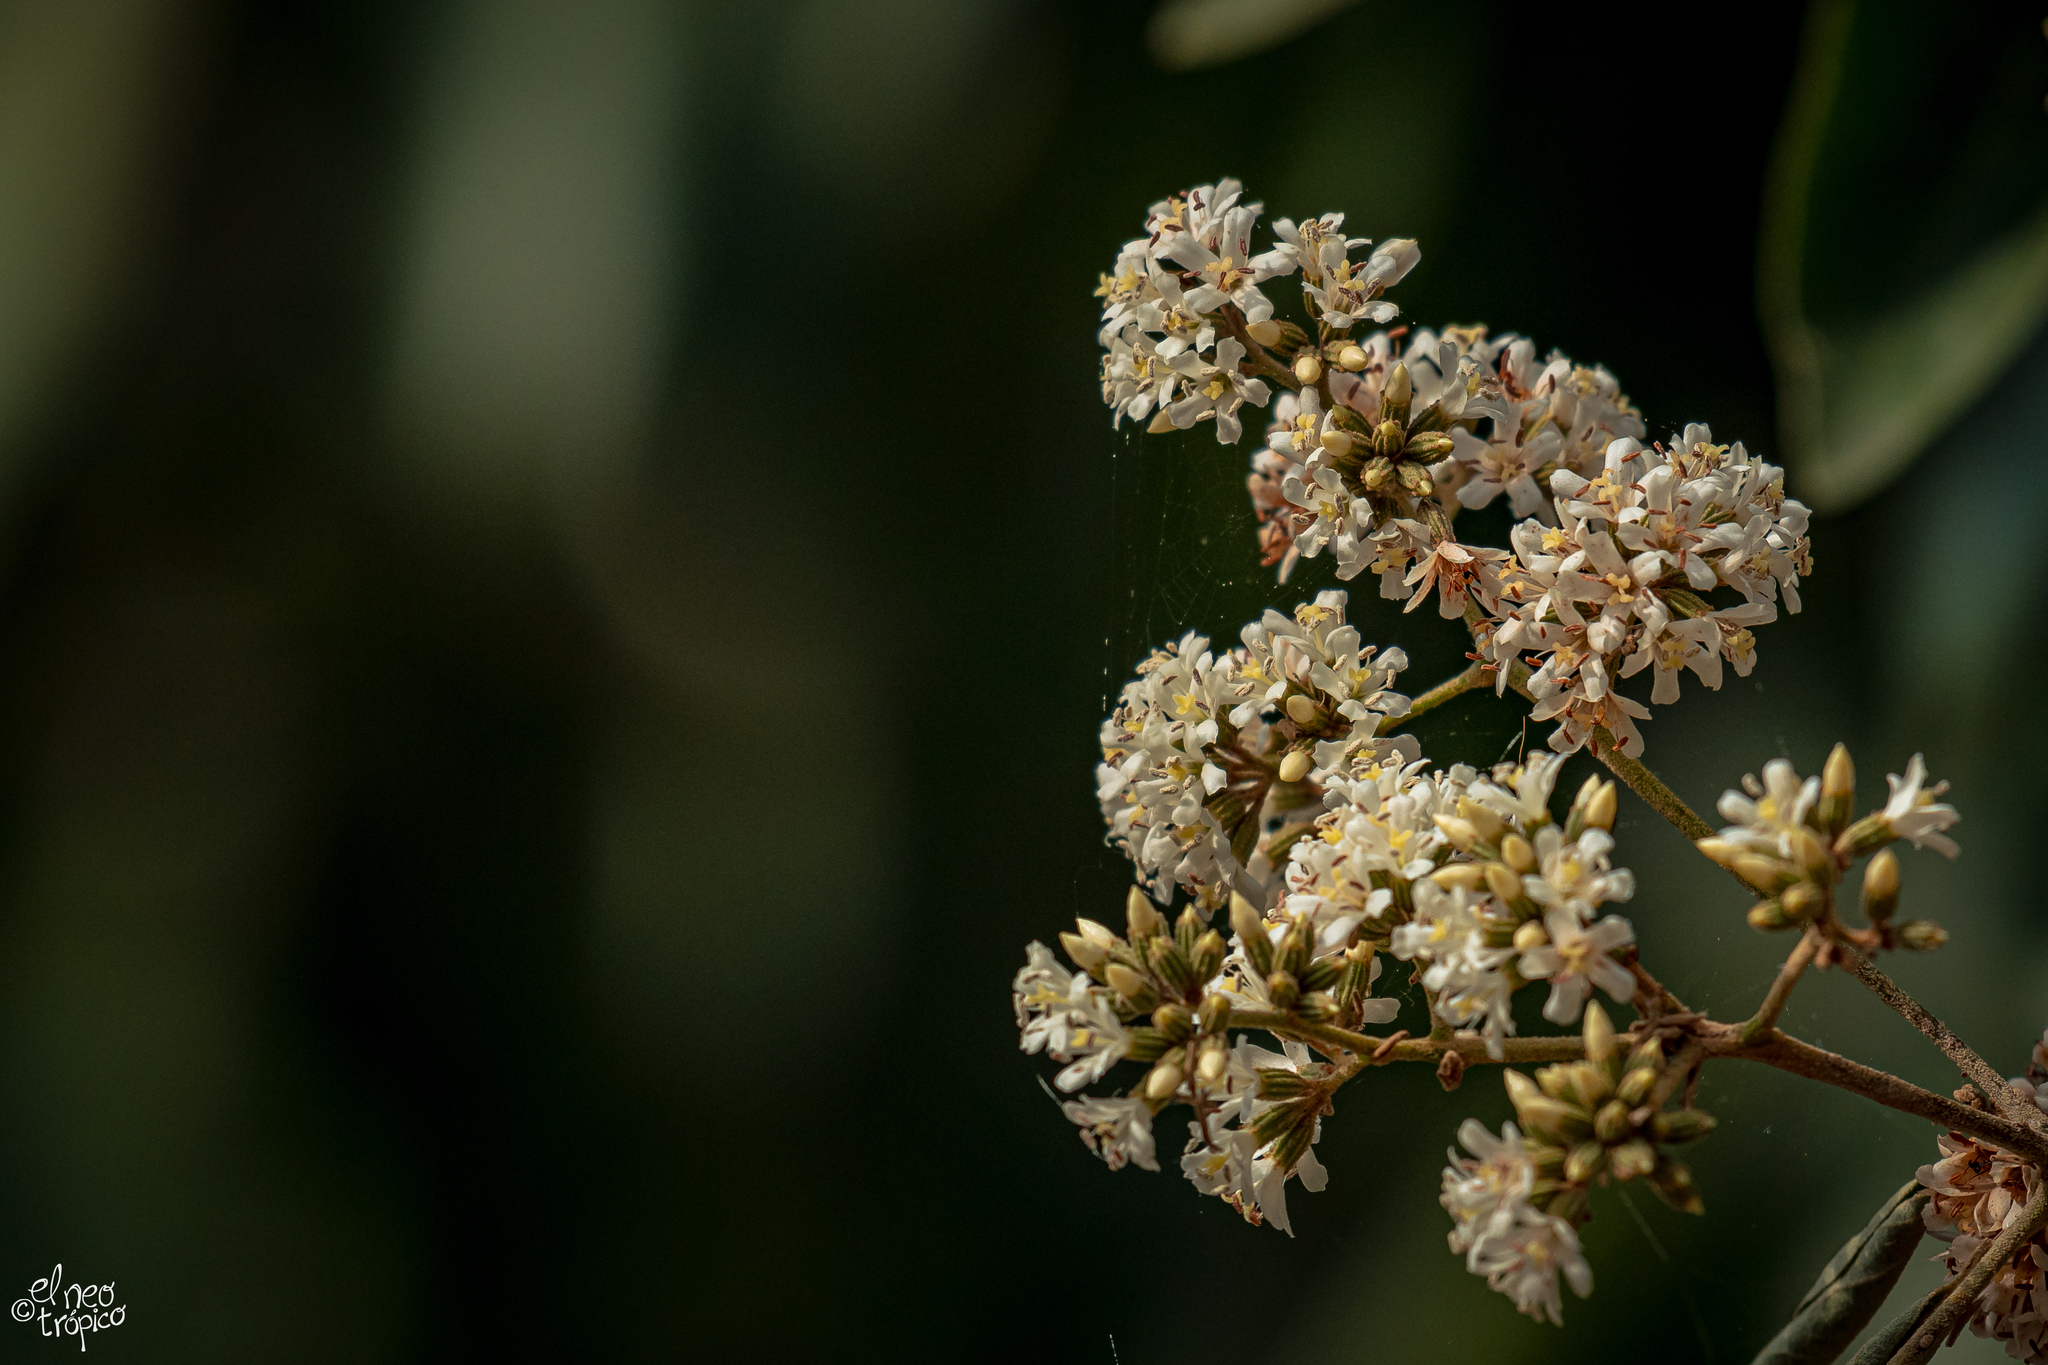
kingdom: Plantae
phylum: Tracheophyta
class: Magnoliopsida
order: Boraginales
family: Cordiaceae
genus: Cordia
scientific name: Cordia alliodora
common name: Spanish elm
